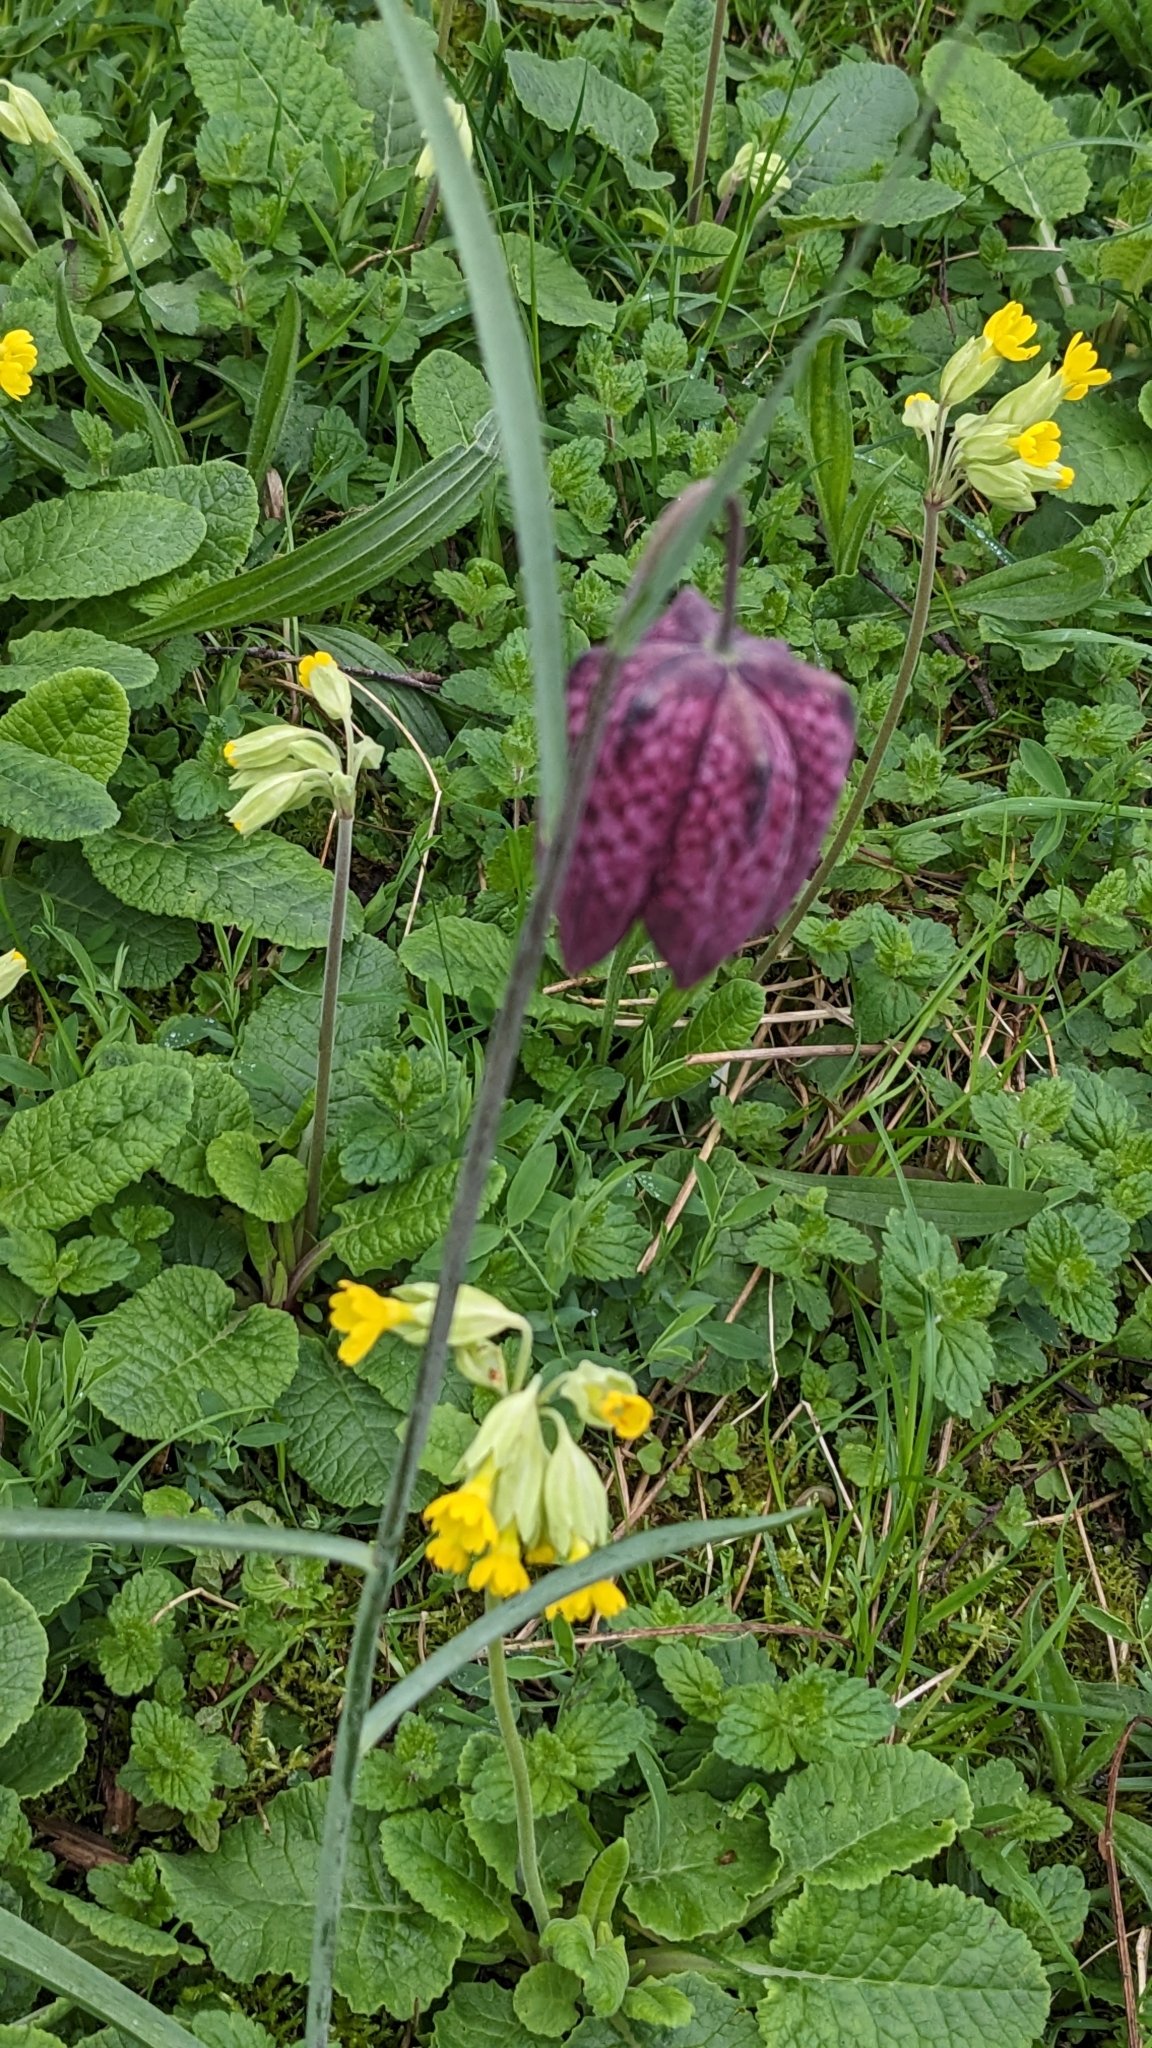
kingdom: Plantae
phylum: Tracheophyta
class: Liliopsida
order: Liliales
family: Liliaceae
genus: Fritillaria
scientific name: Fritillaria meleagris
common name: Fritillary
